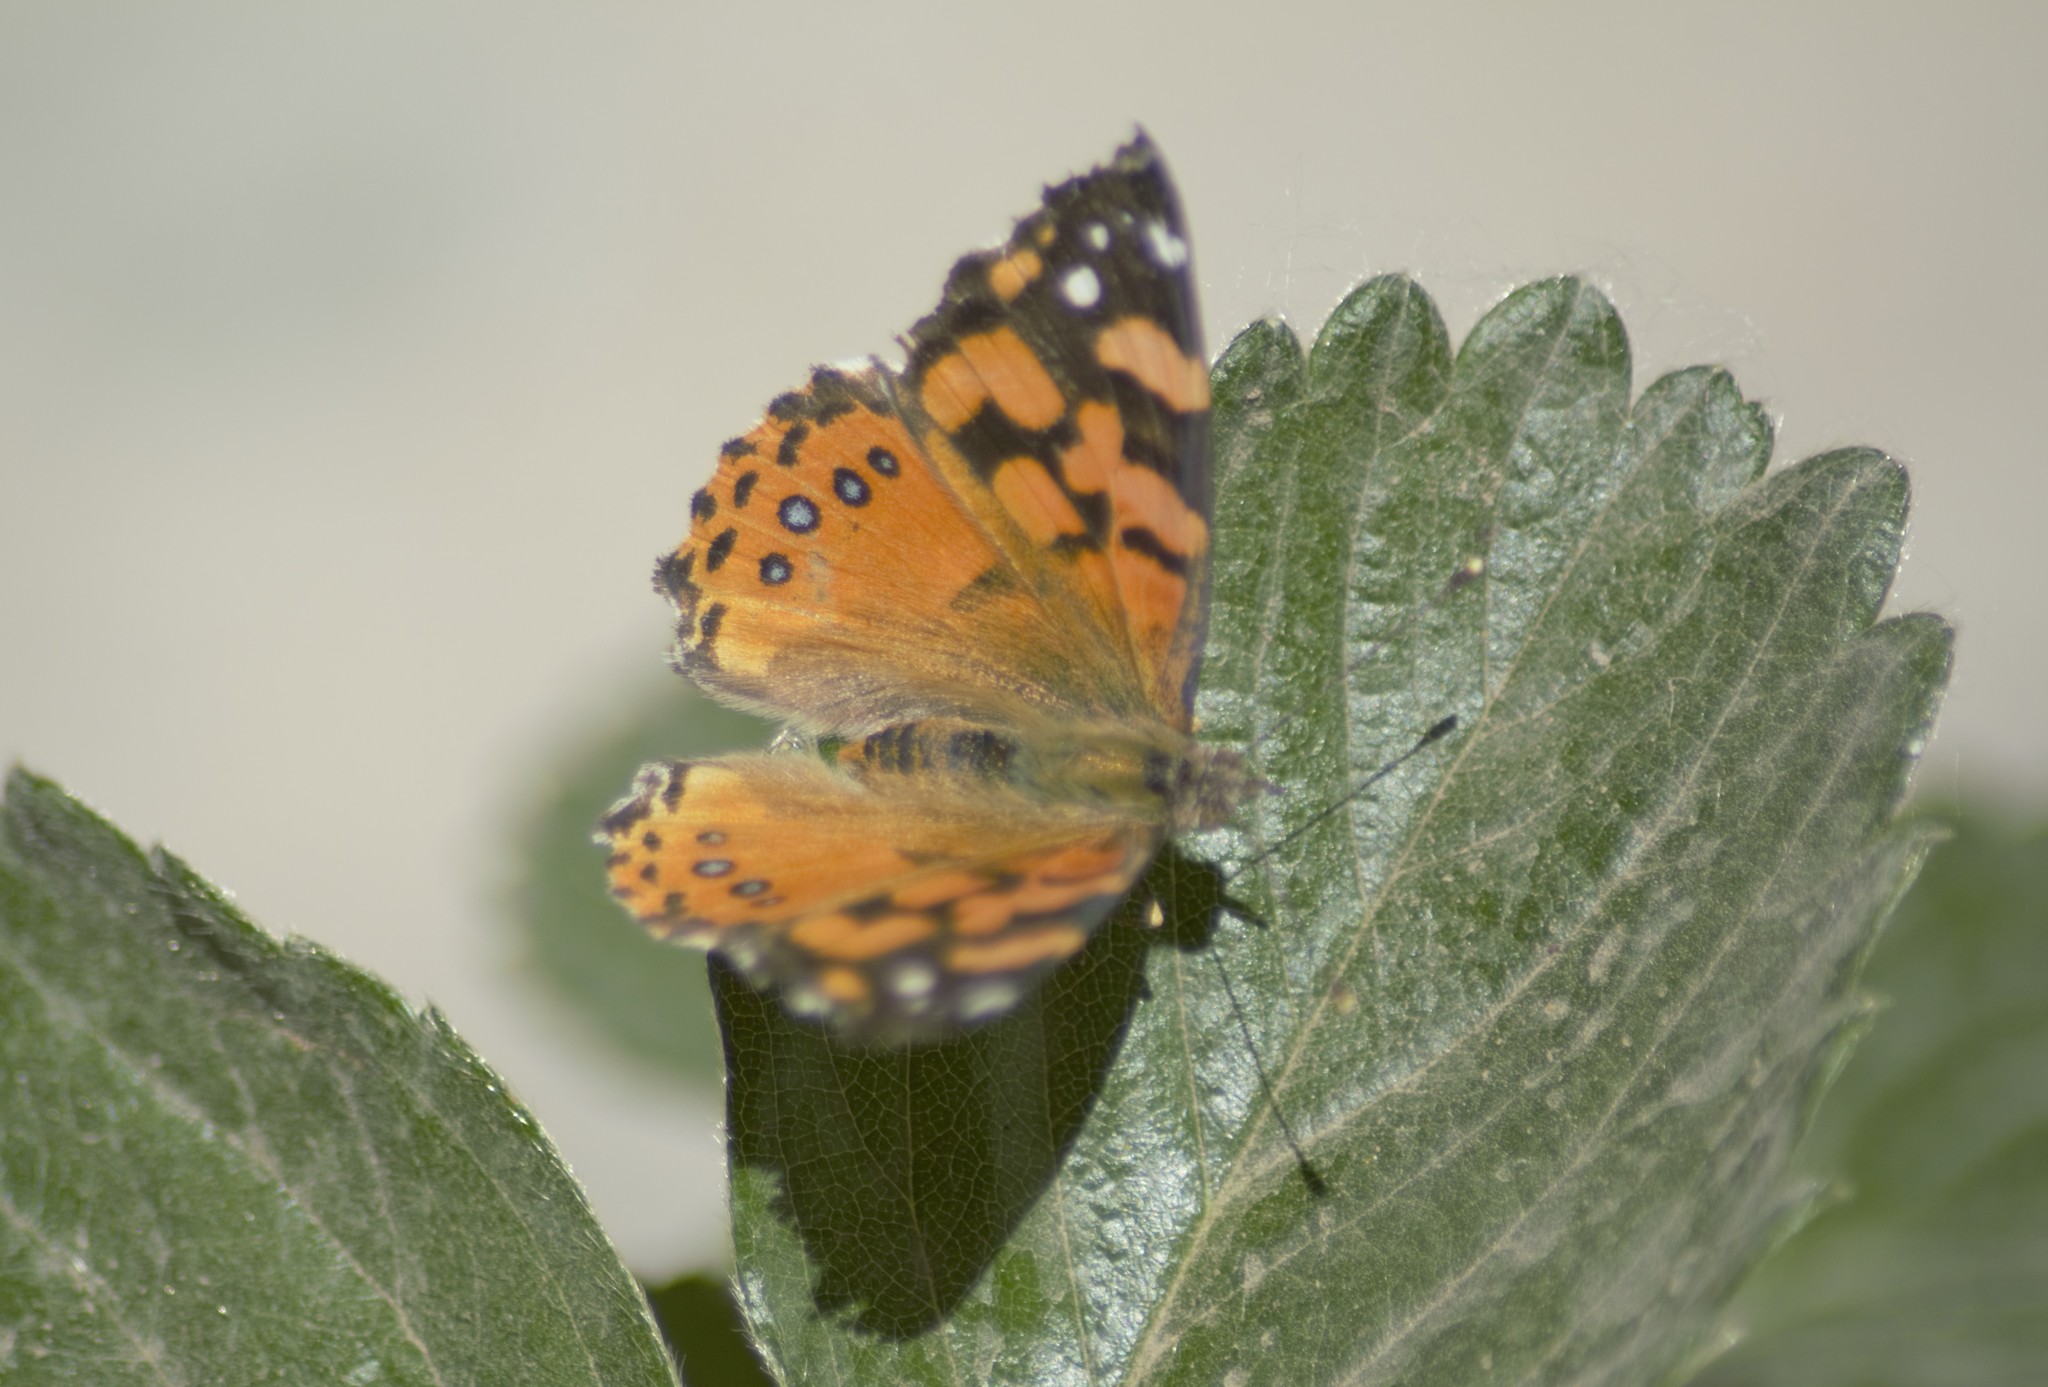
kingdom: Animalia
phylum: Arthropoda
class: Insecta
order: Lepidoptera
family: Nymphalidae
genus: Vanessa
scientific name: Vanessa carye
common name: Subtropical lady
